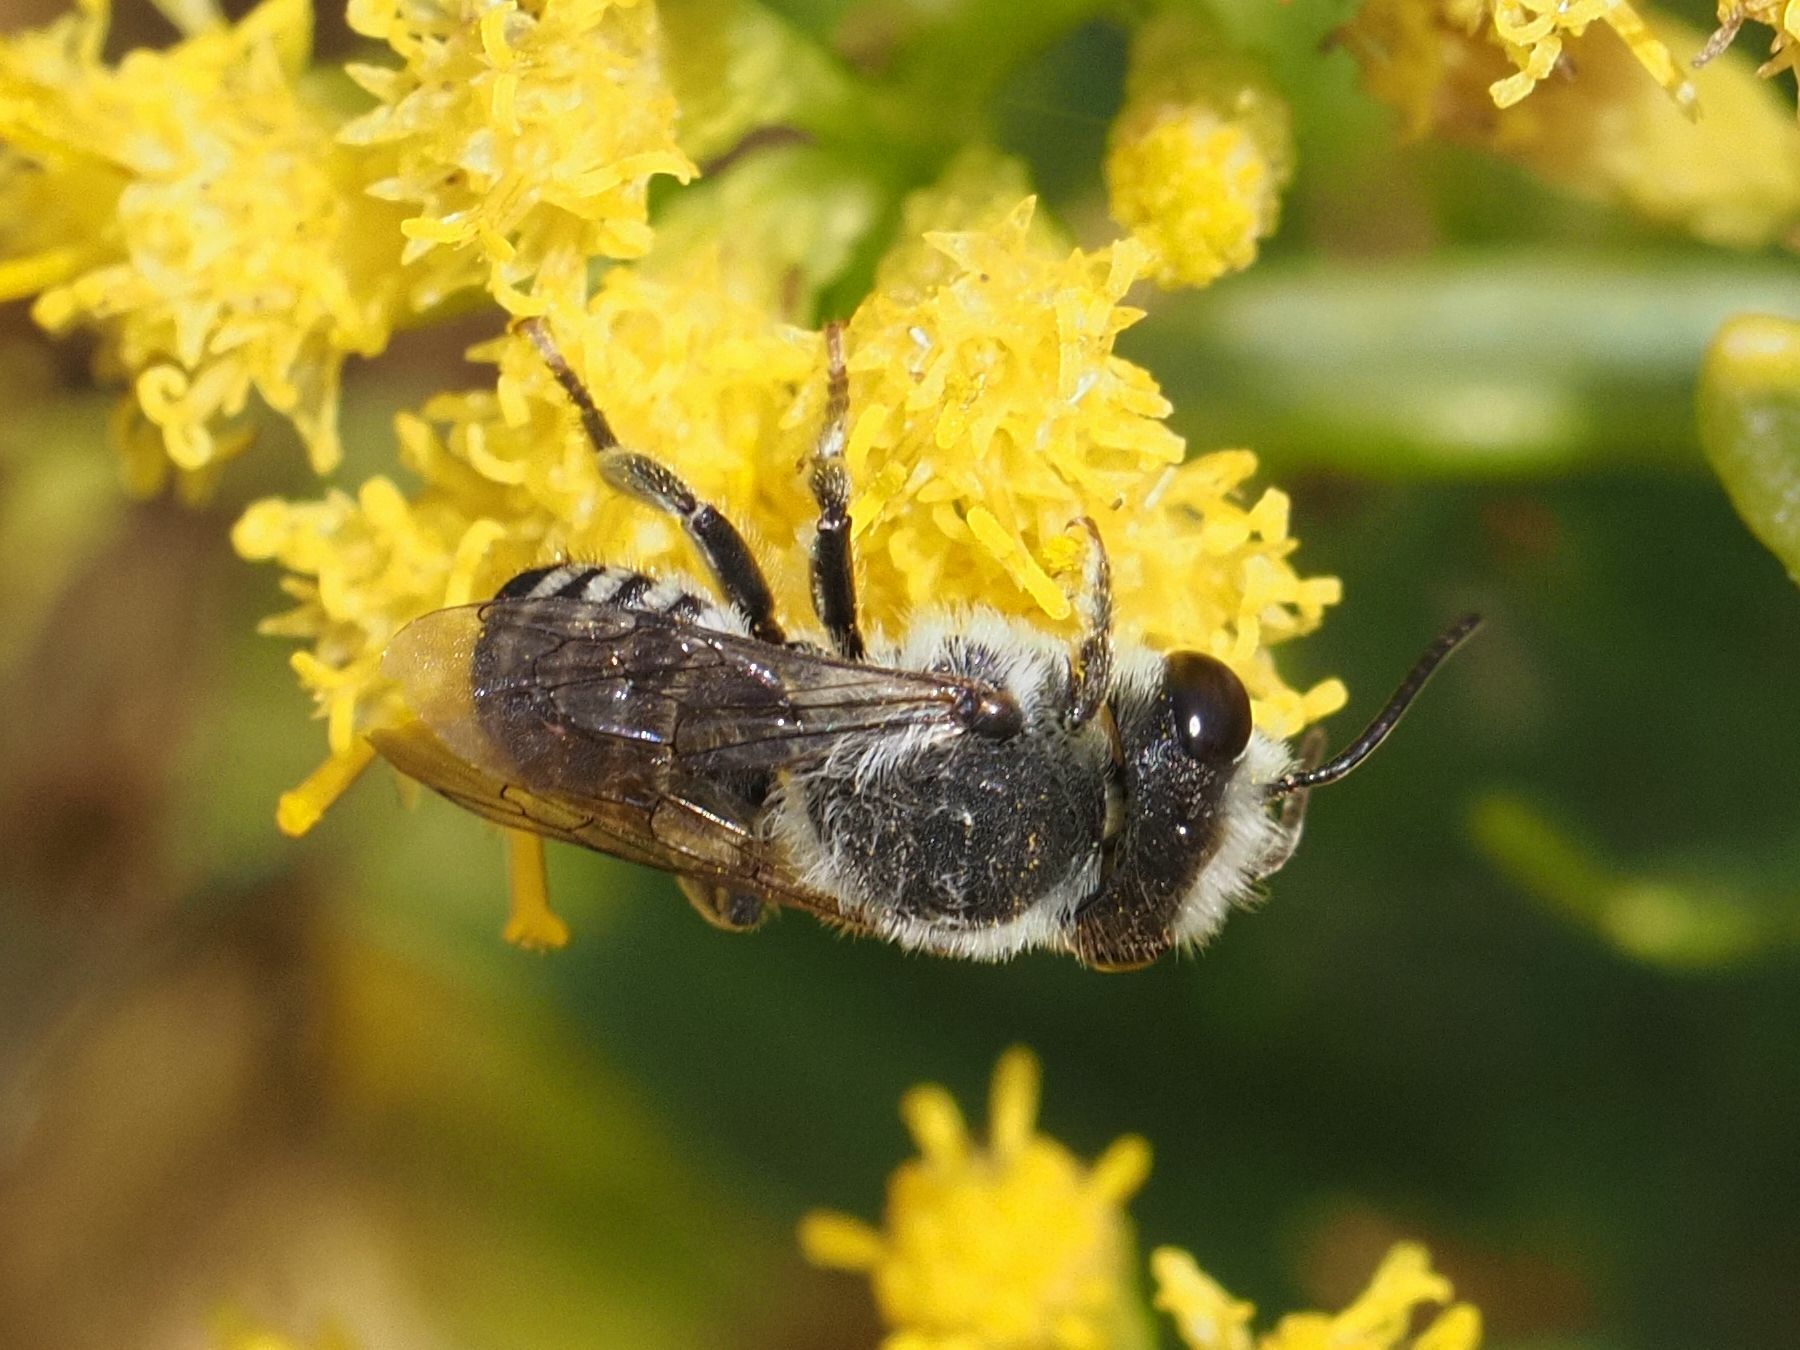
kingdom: Animalia
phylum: Arthropoda
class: Insecta
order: Hymenoptera
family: Megachilidae
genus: Megachile
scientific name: Megachile canariensis
